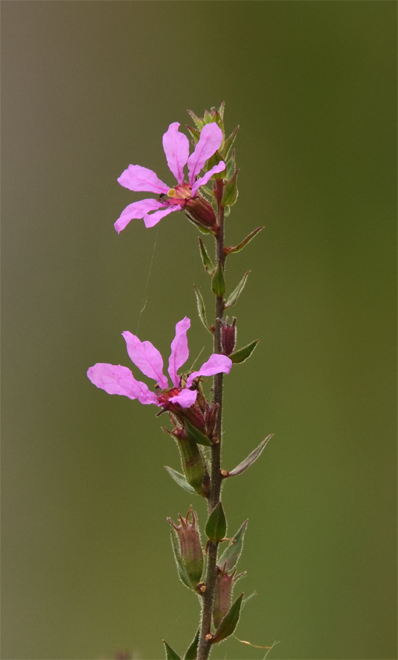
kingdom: Plantae
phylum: Tracheophyta
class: Magnoliopsida
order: Myrtales
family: Lythraceae
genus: Lythrum
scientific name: Lythrum salicaria
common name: Purple loosestrife
